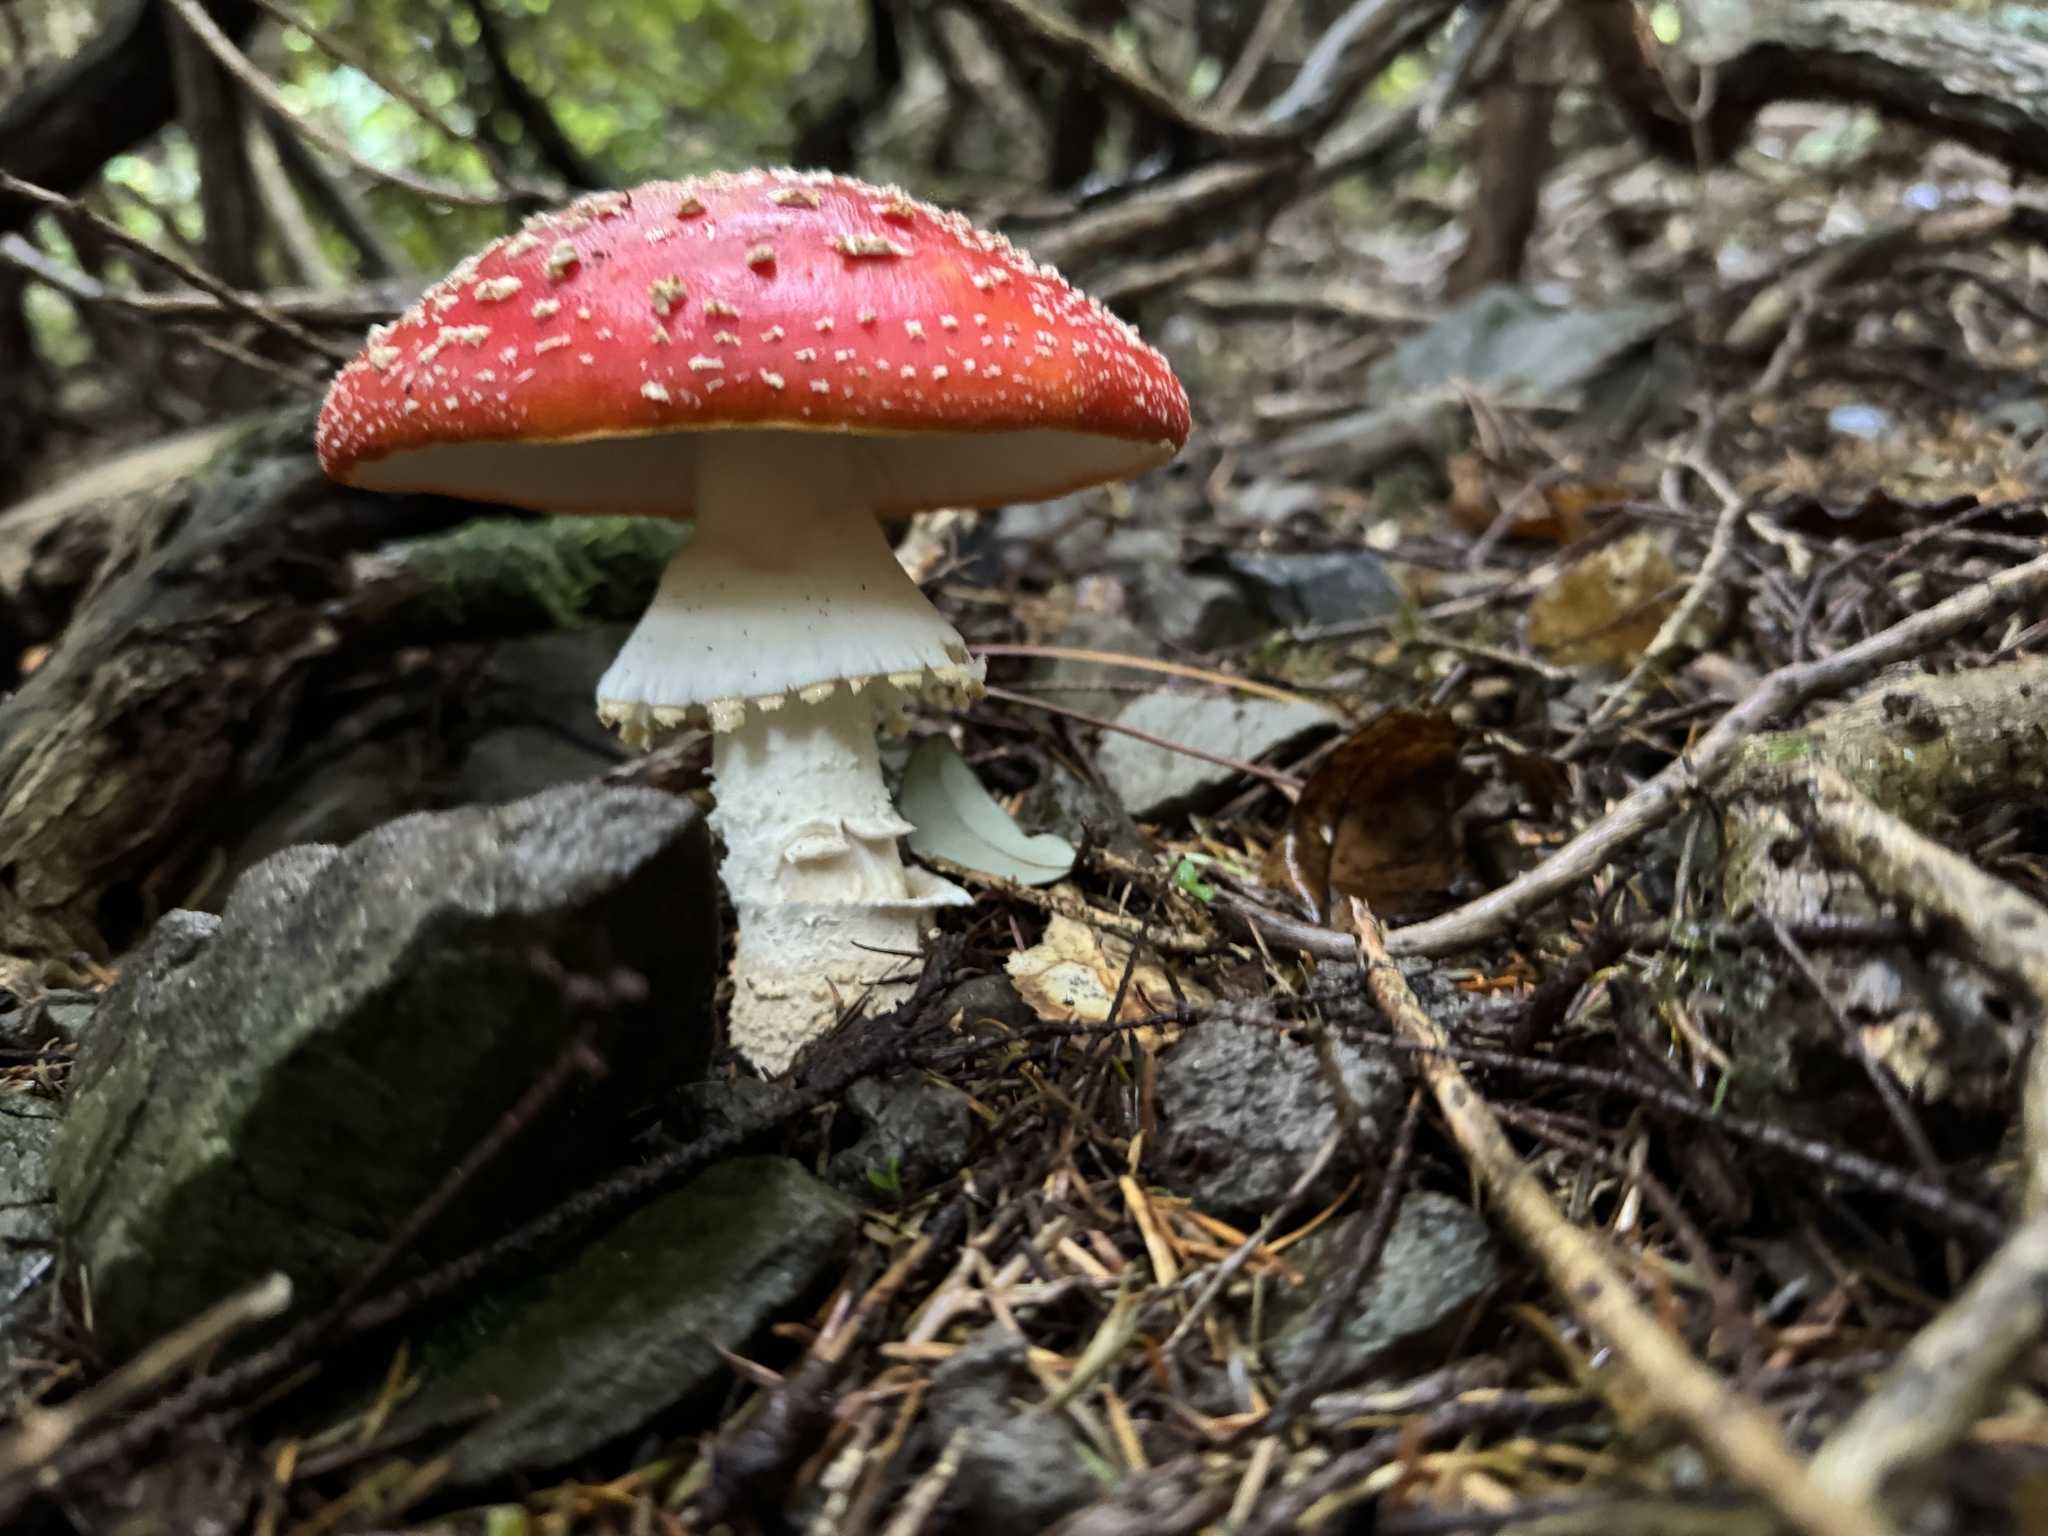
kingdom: Fungi
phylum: Basidiomycota
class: Agaricomycetes
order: Agaricales
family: Amanitaceae
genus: Amanita
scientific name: Amanita muscaria
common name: Fly agaric
